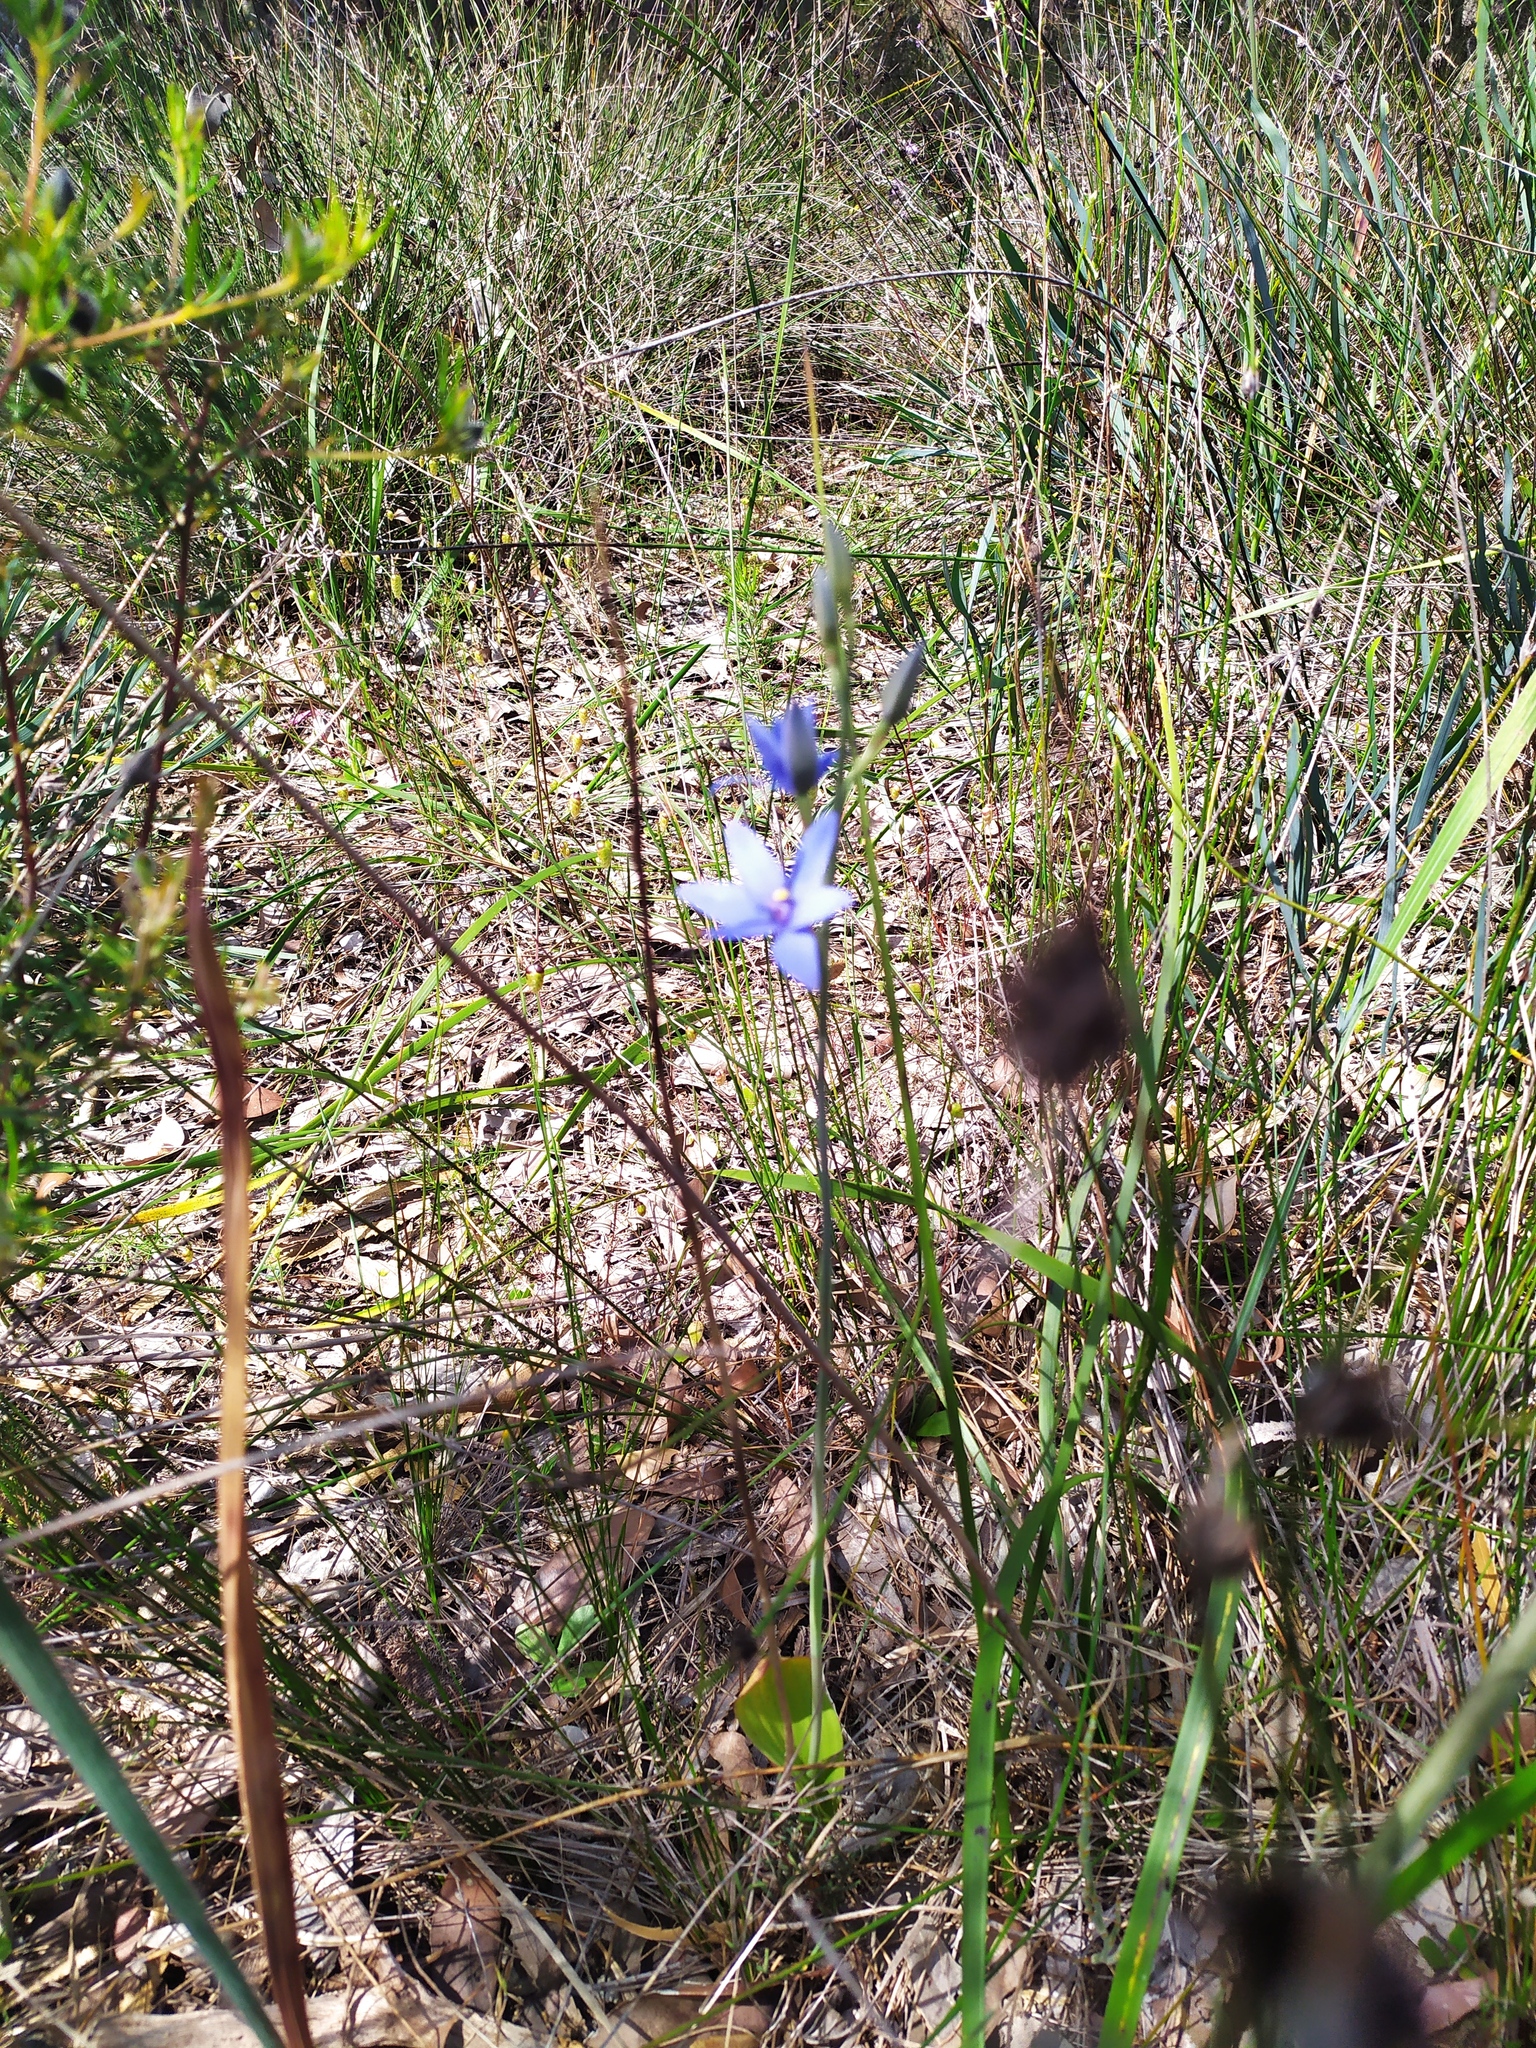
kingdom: Plantae
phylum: Tracheophyta
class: Liliopsida
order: Asparagales
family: Orchidaceae
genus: Thelymitra
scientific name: Thelymitra crinita
